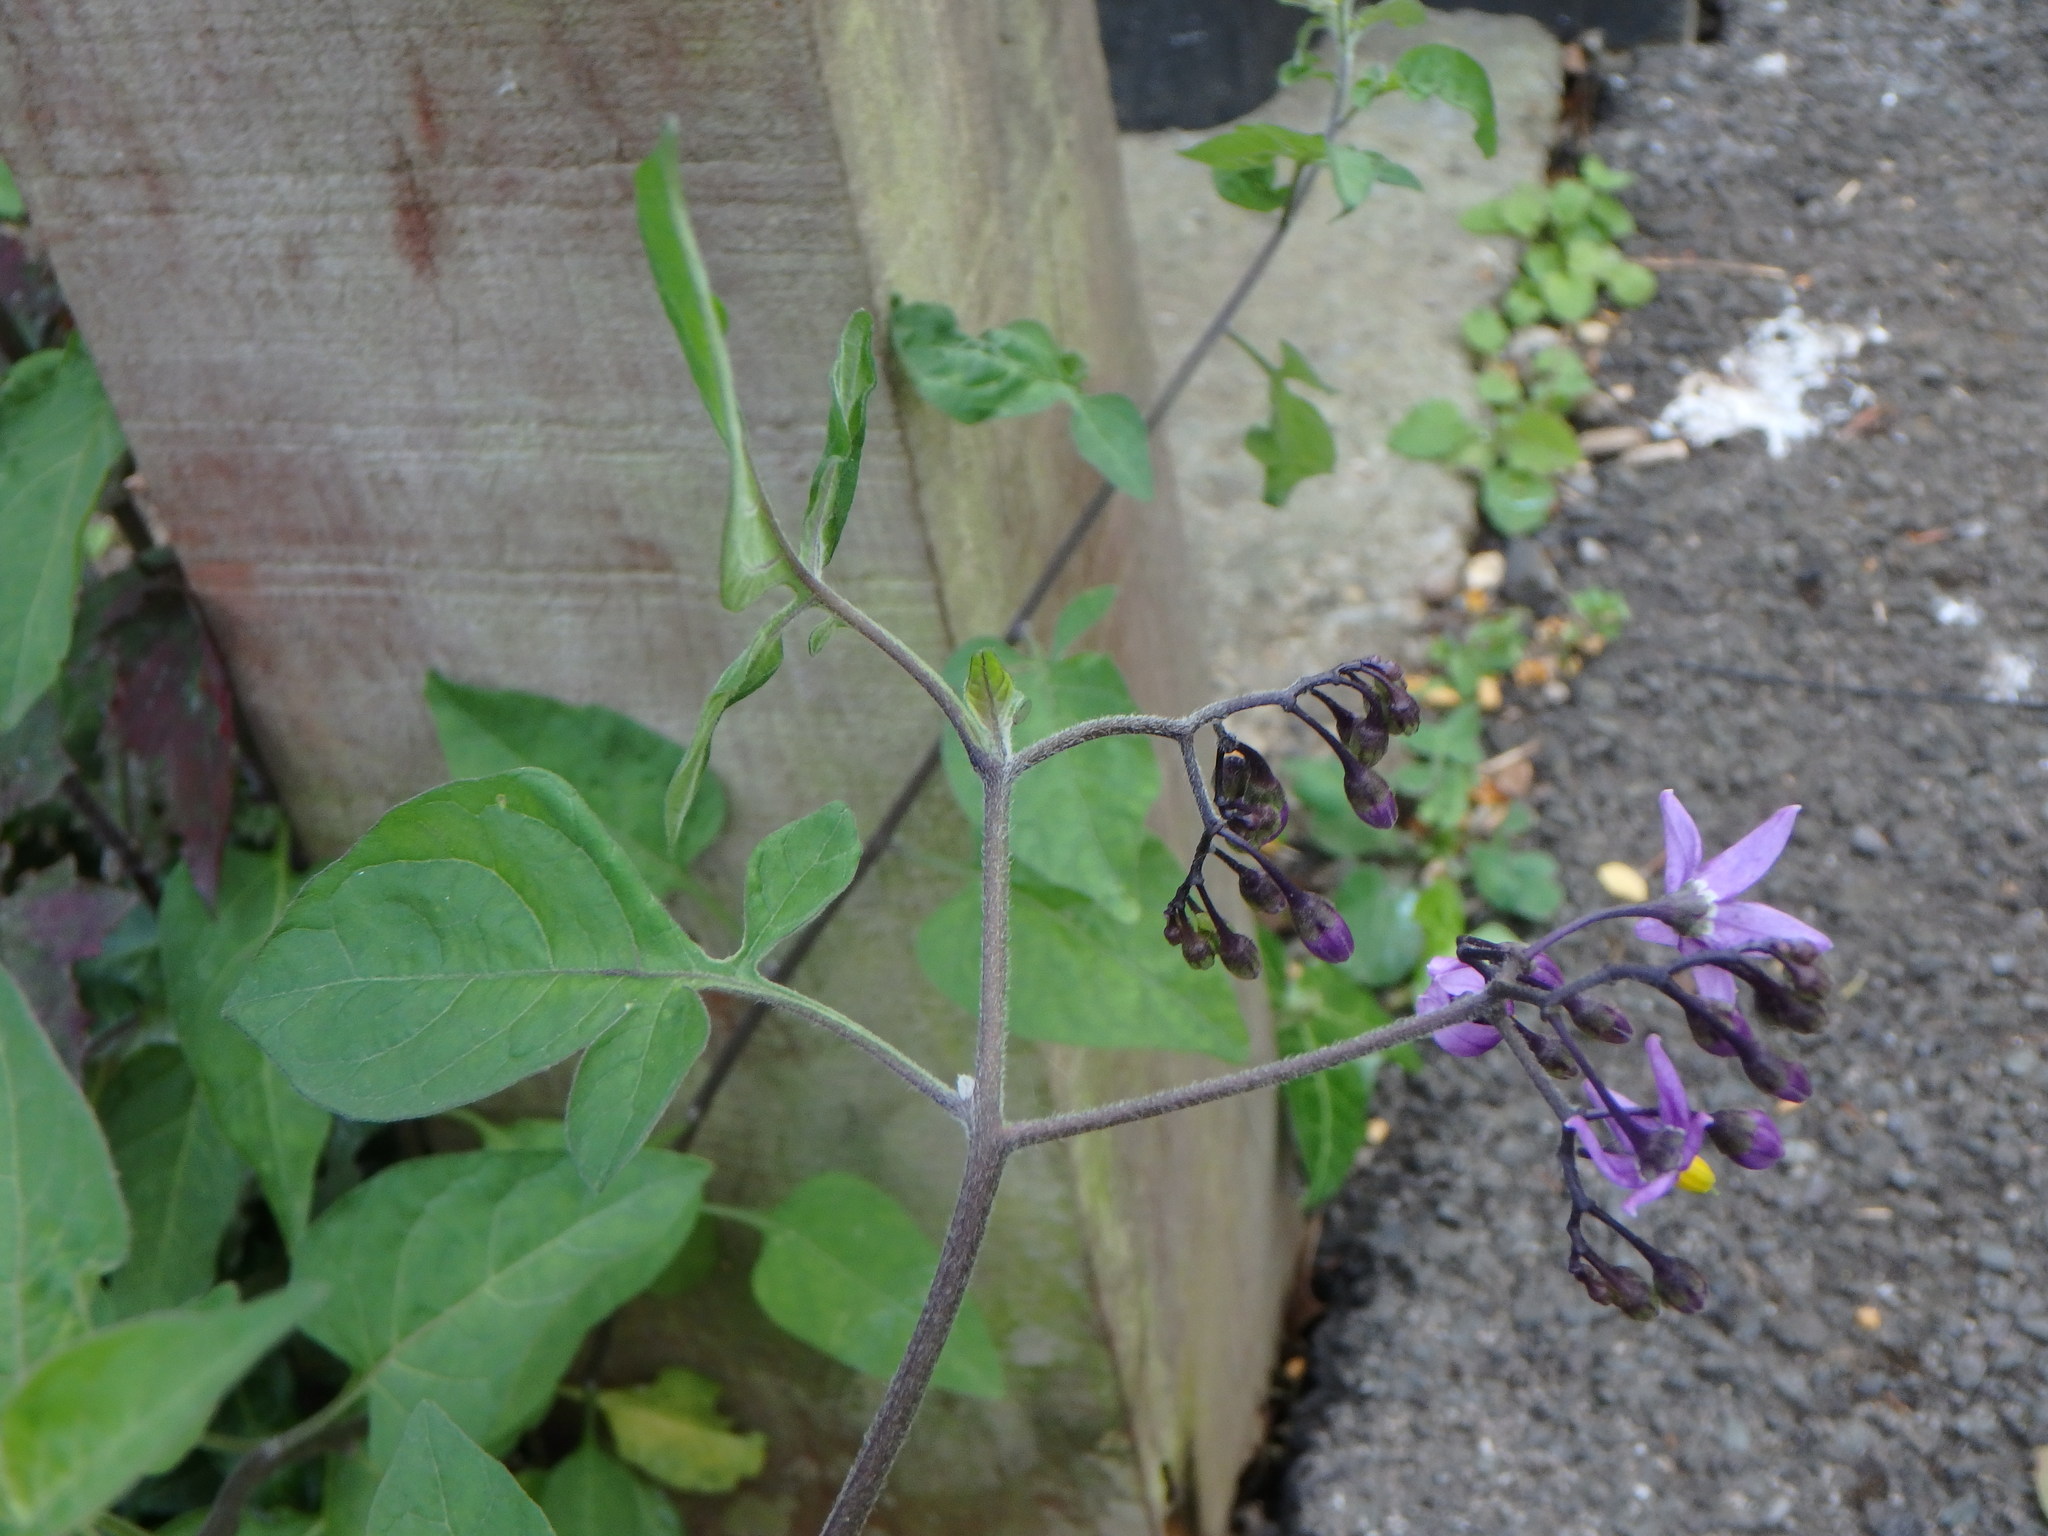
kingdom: Plantae
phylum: Tracheophyta
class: Magnoliopsida
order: Solanales
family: Solanaceae
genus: Solanum
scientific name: Solanum dulcamara
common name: Climbing nightshade
